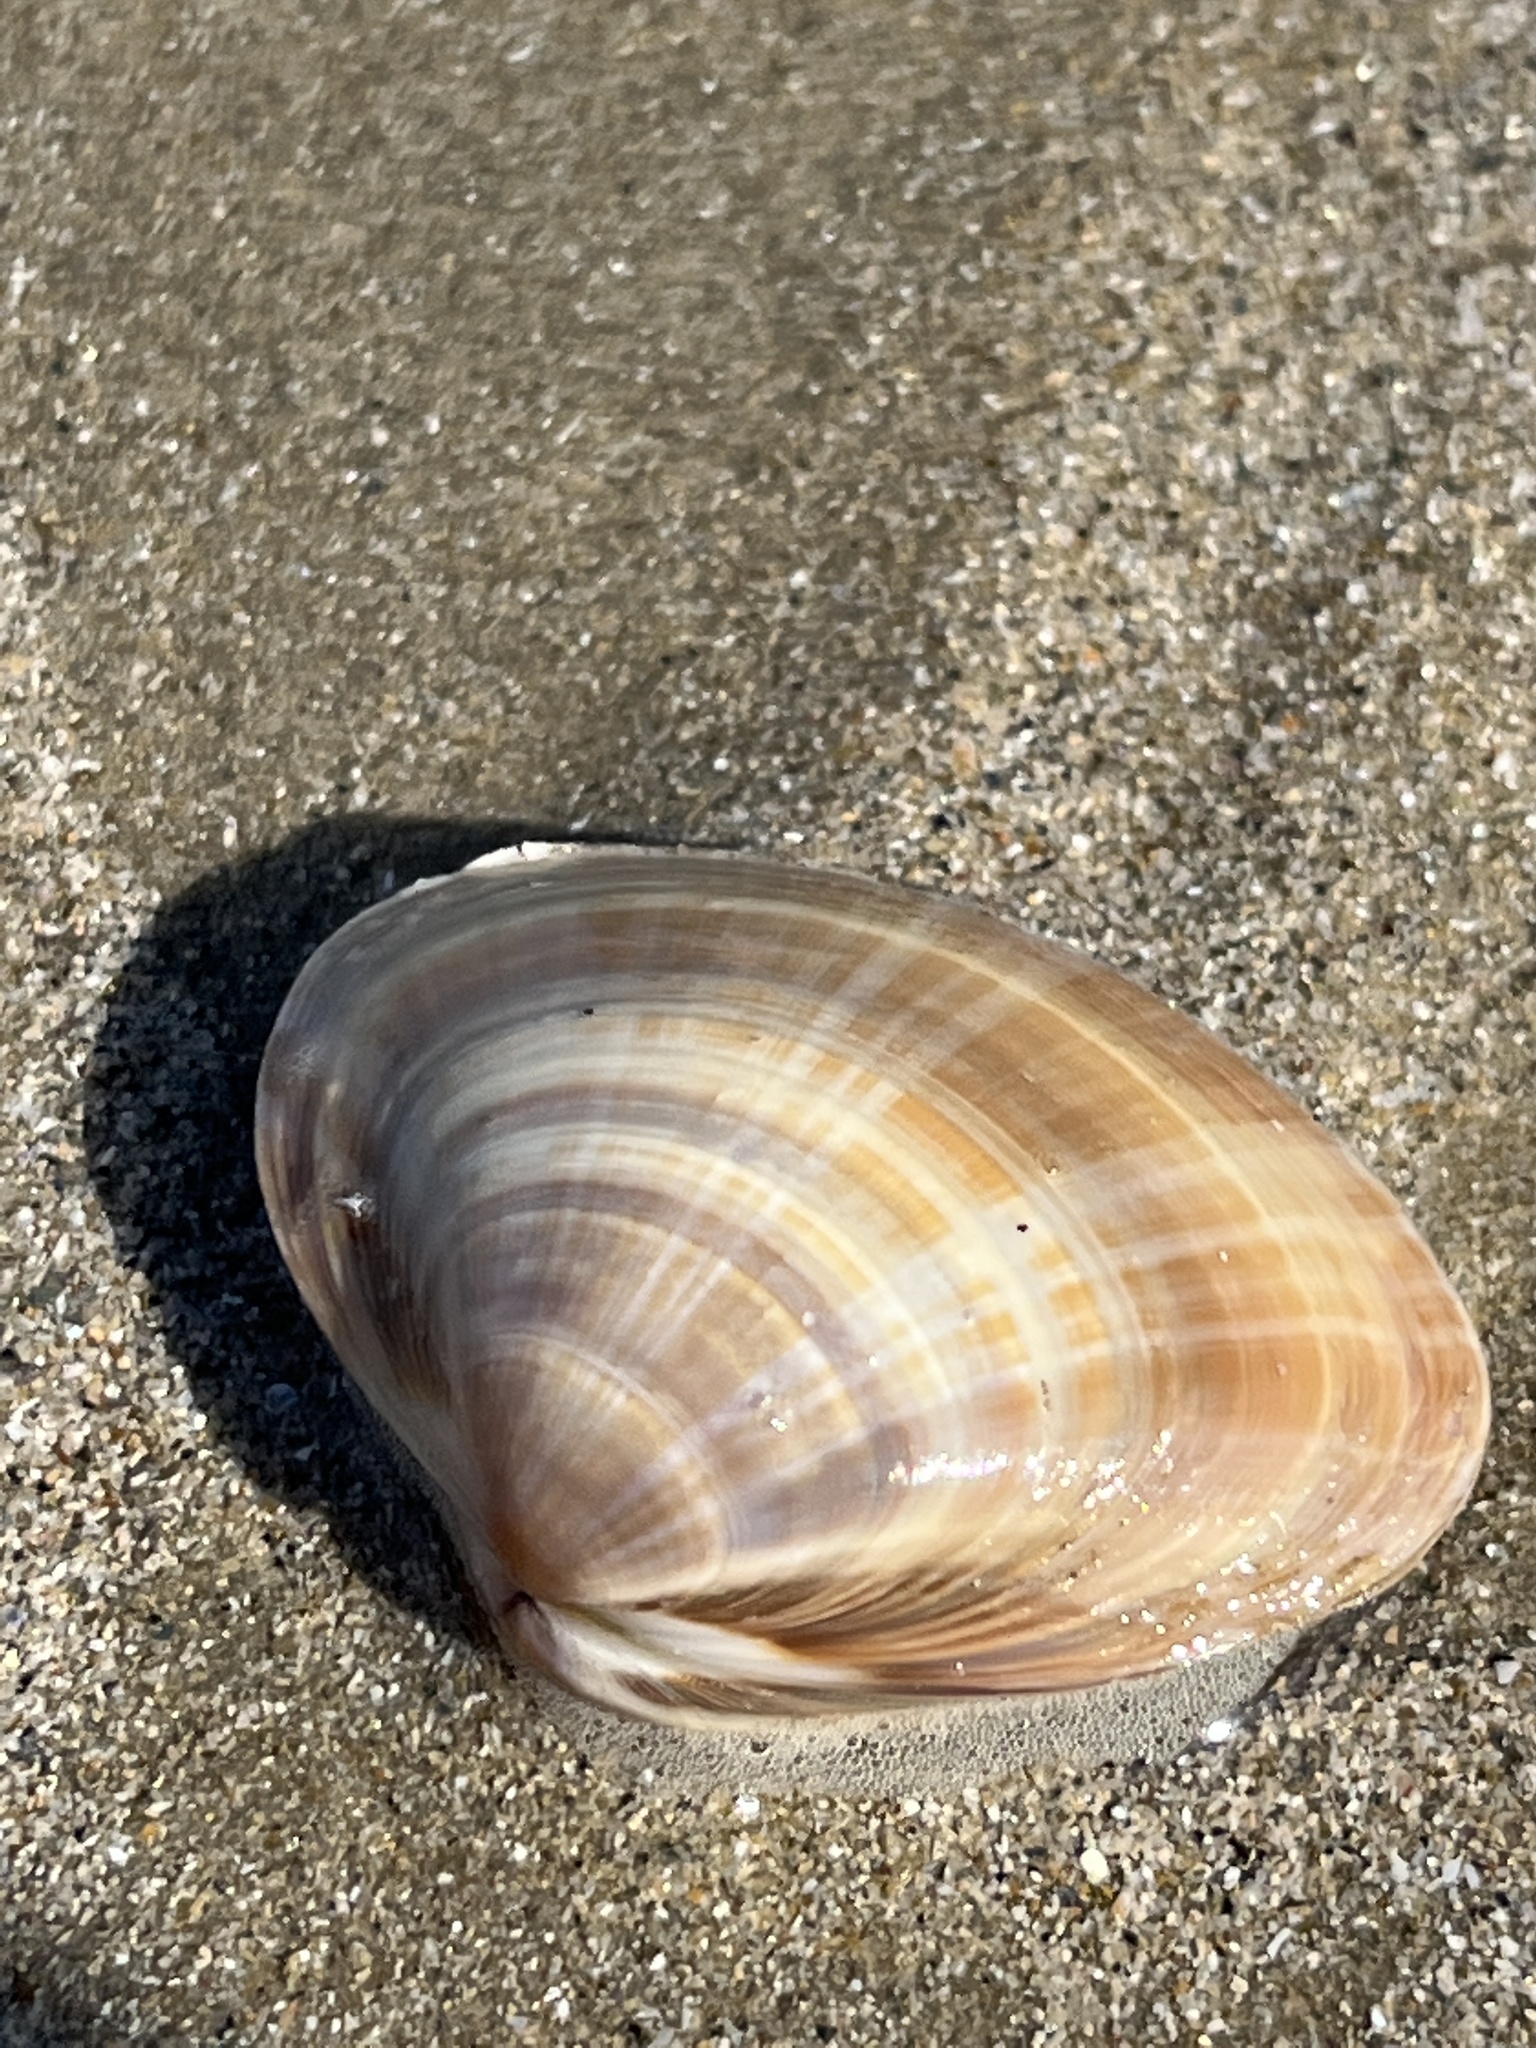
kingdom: Animalia
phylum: Mollusca
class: Bivalvia
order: Venerida
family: Mactridae
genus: Mactra
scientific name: Mactra chinensis
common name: Chinese surf clam
